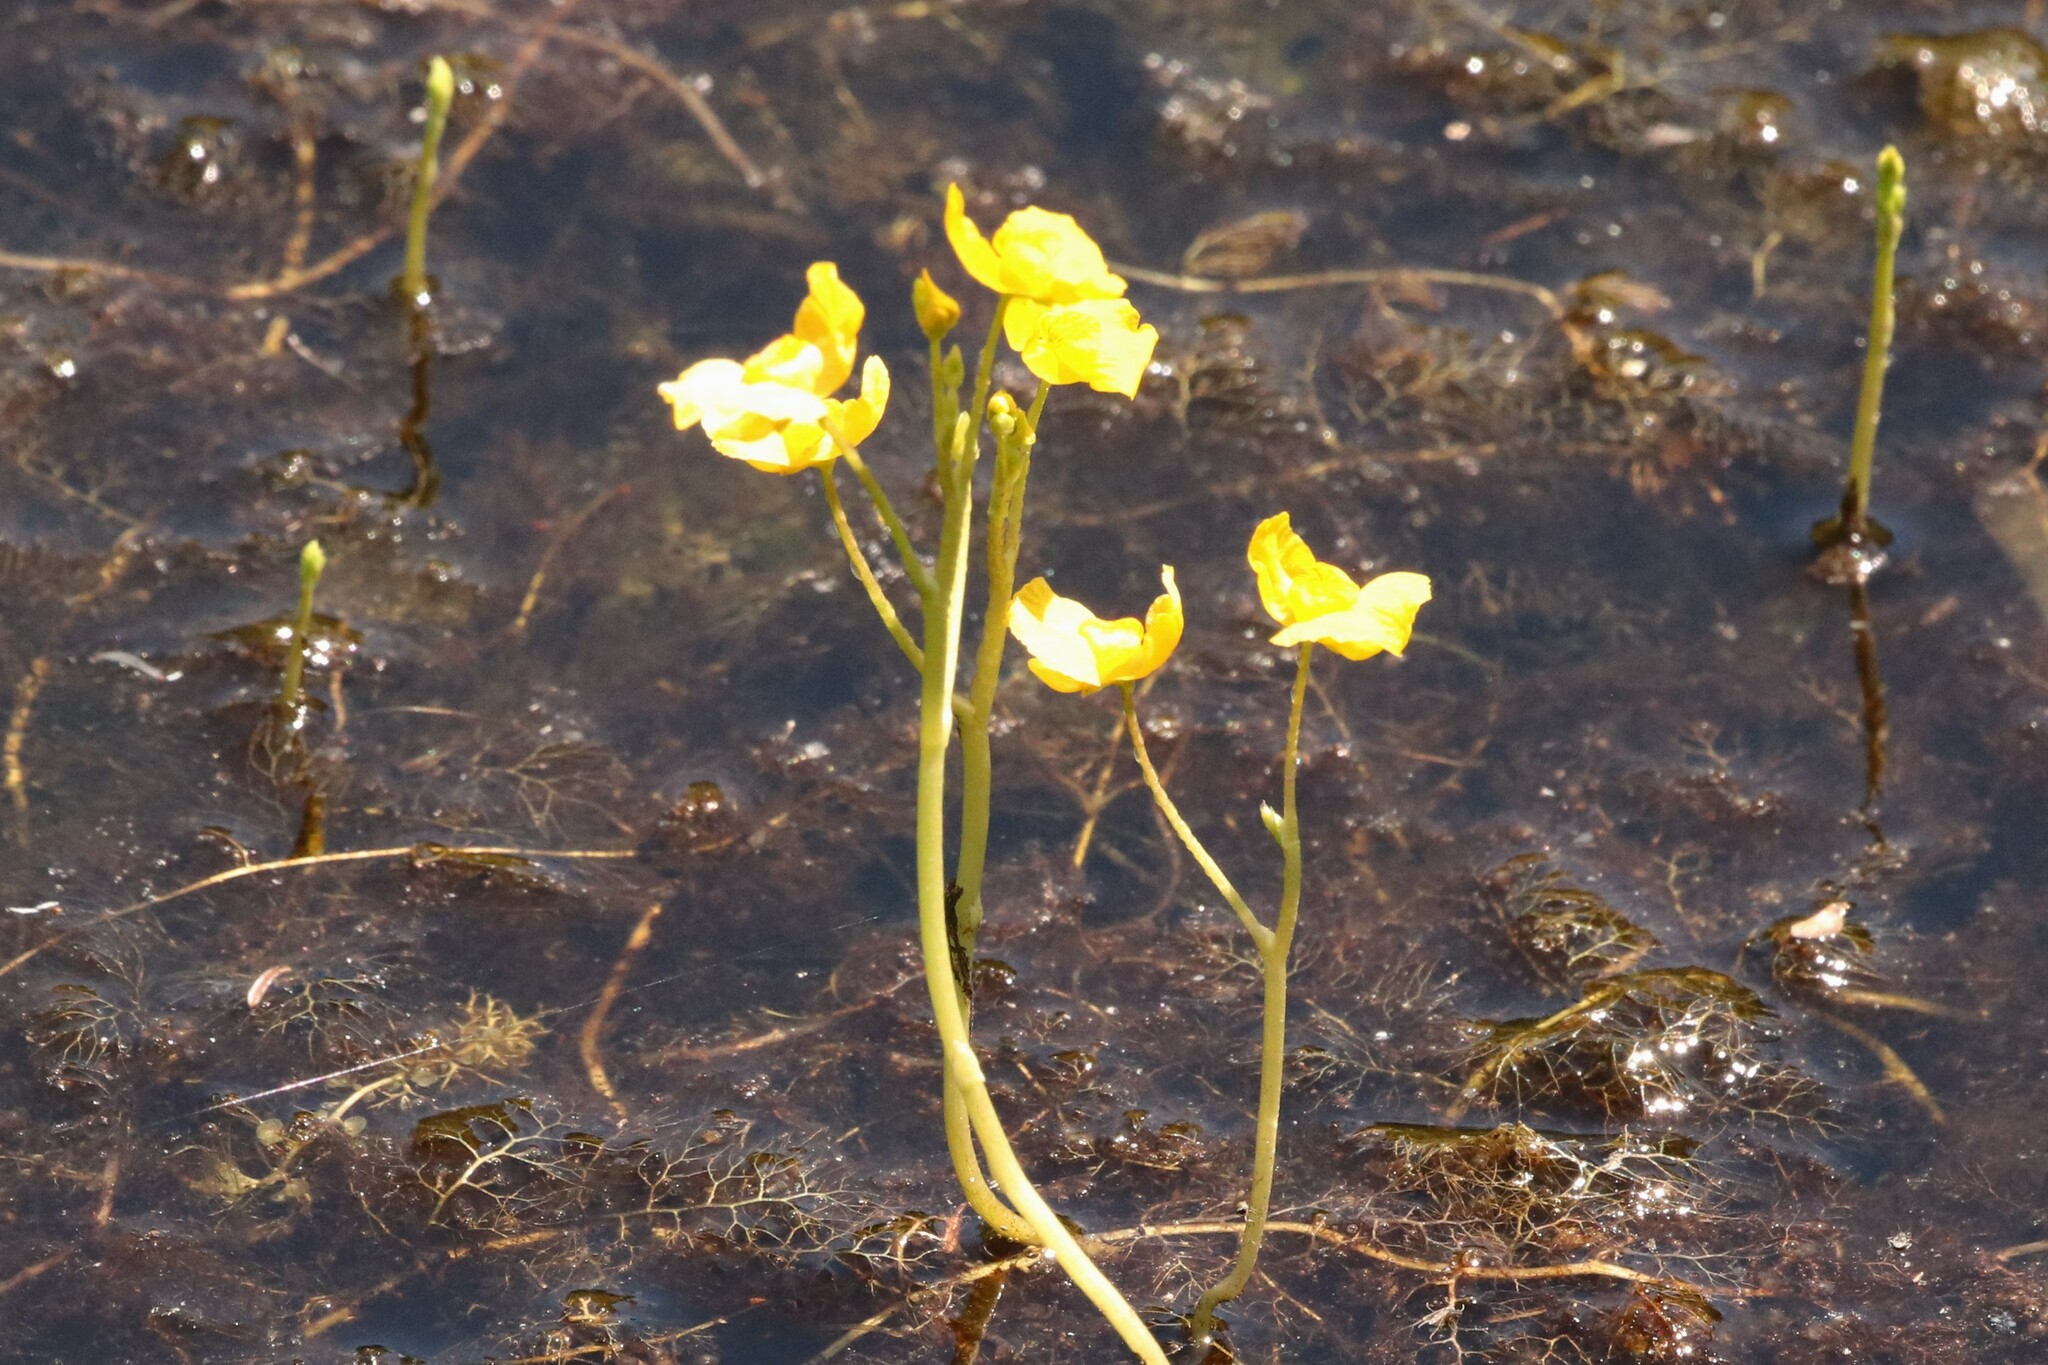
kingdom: Plantae
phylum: Tracheophyta
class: Magnoliopsida
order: Lamiales
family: Lentibulariaceae
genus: Utricularia
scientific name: Utricularia macrorhiza
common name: Common bladderwort
